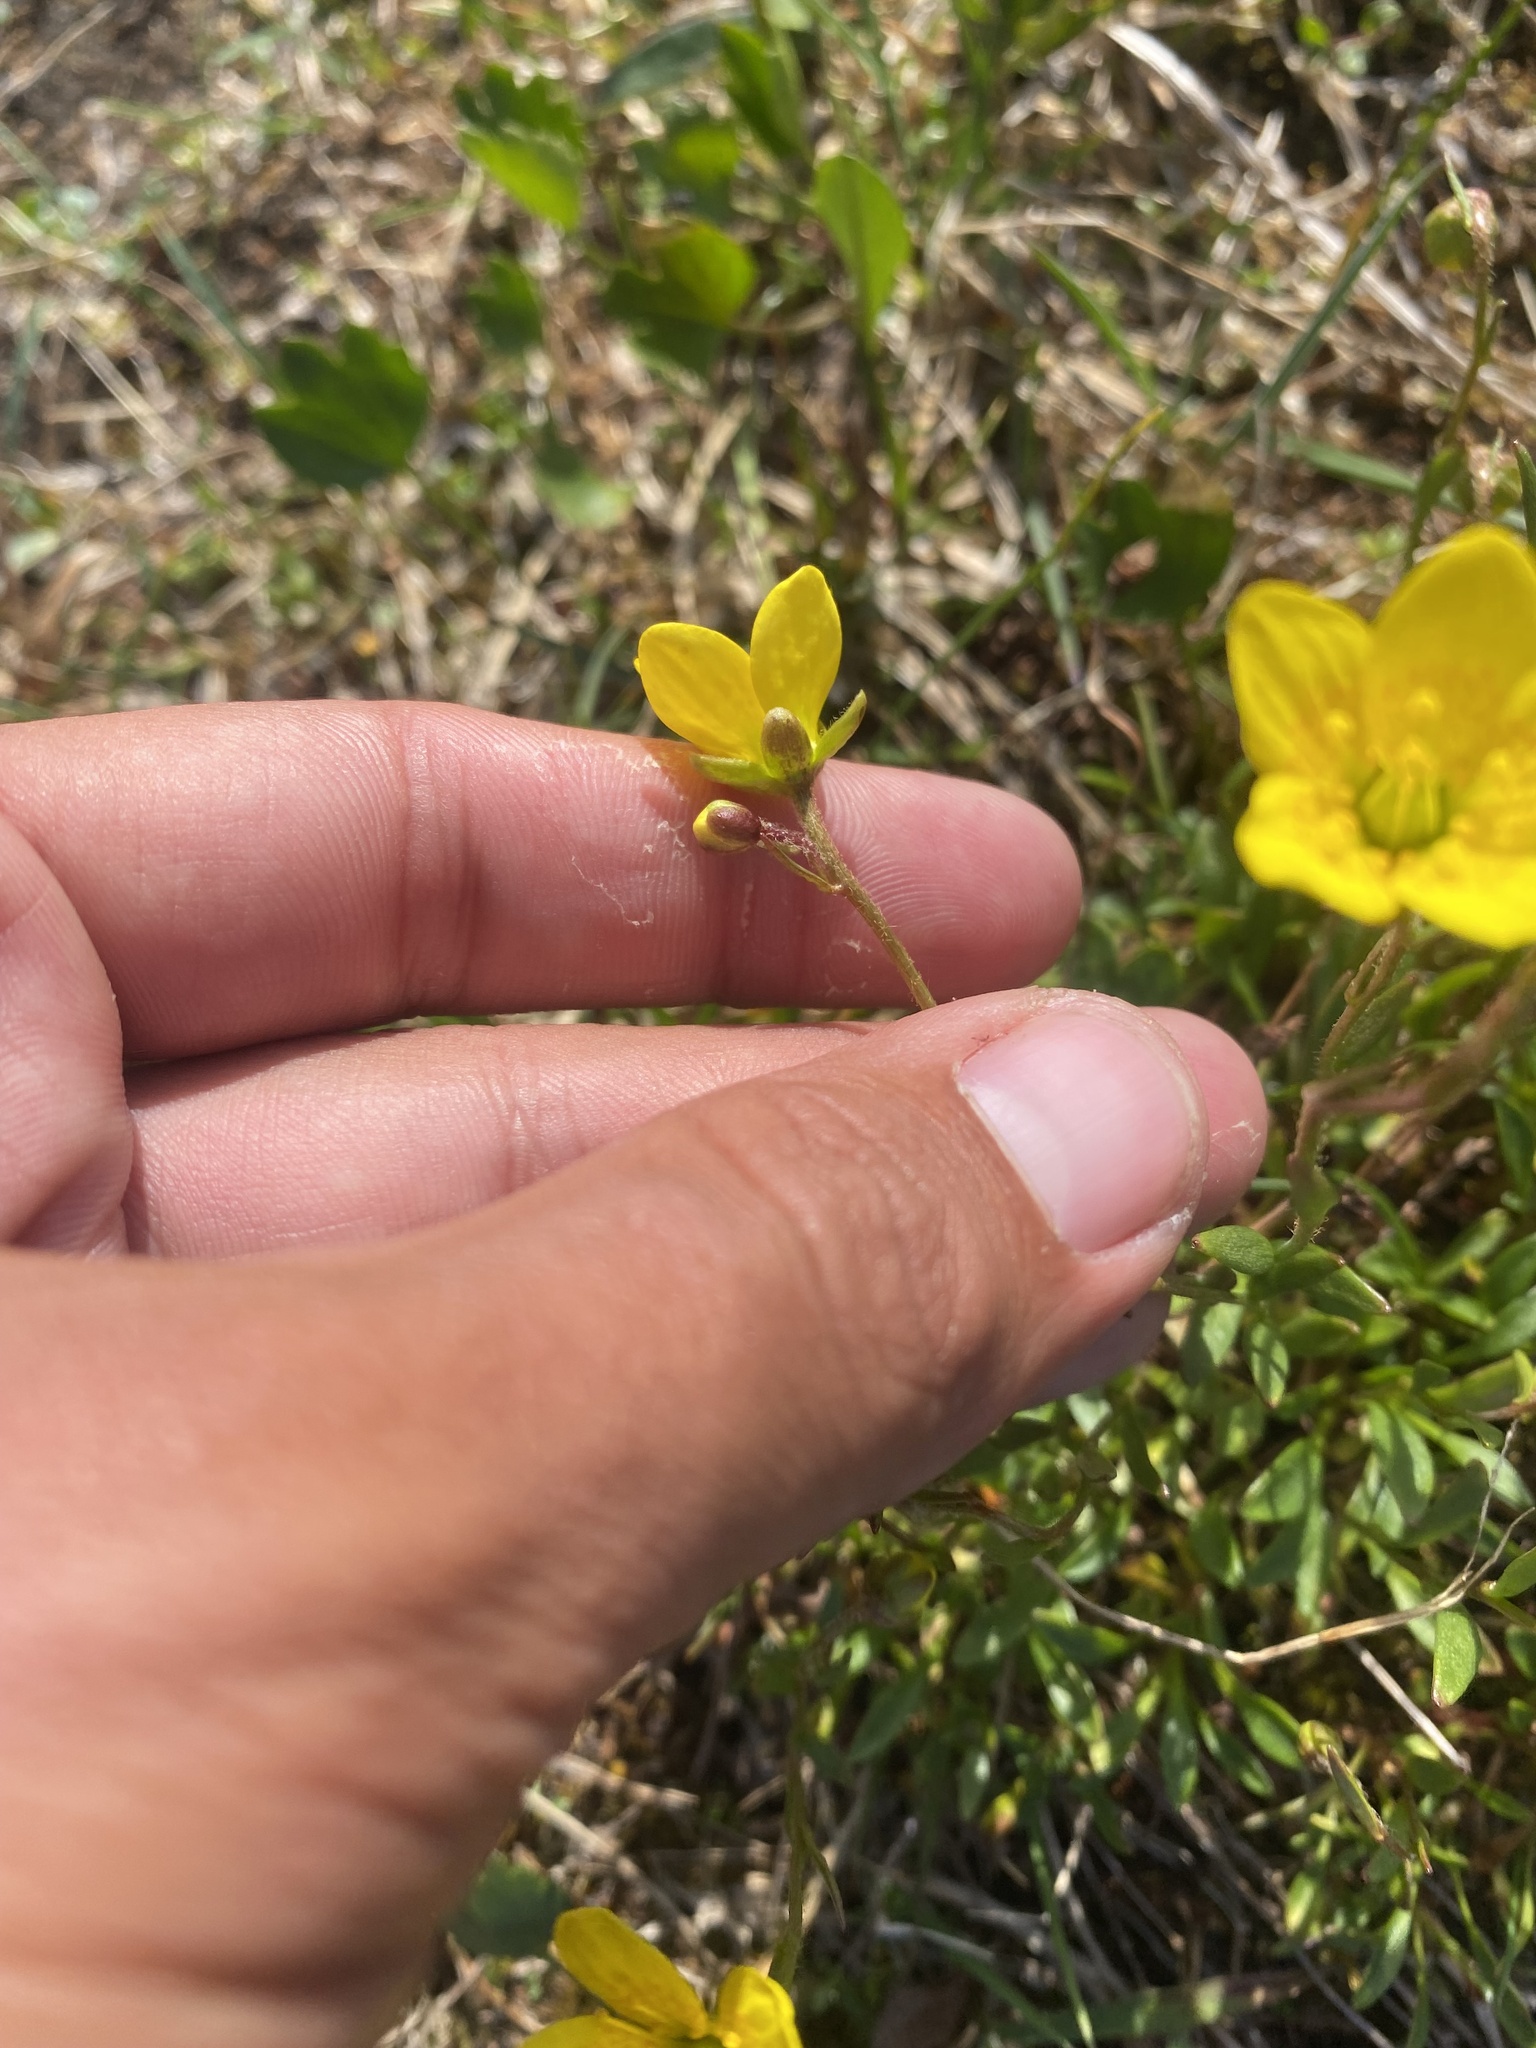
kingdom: Plantae
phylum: Tracheophyta
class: Magnoliopsida
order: Saxifragales
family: Saxifragaceae
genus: Saxifraga
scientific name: Saxifraga hirculus
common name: Yellow marsh saxifrage
